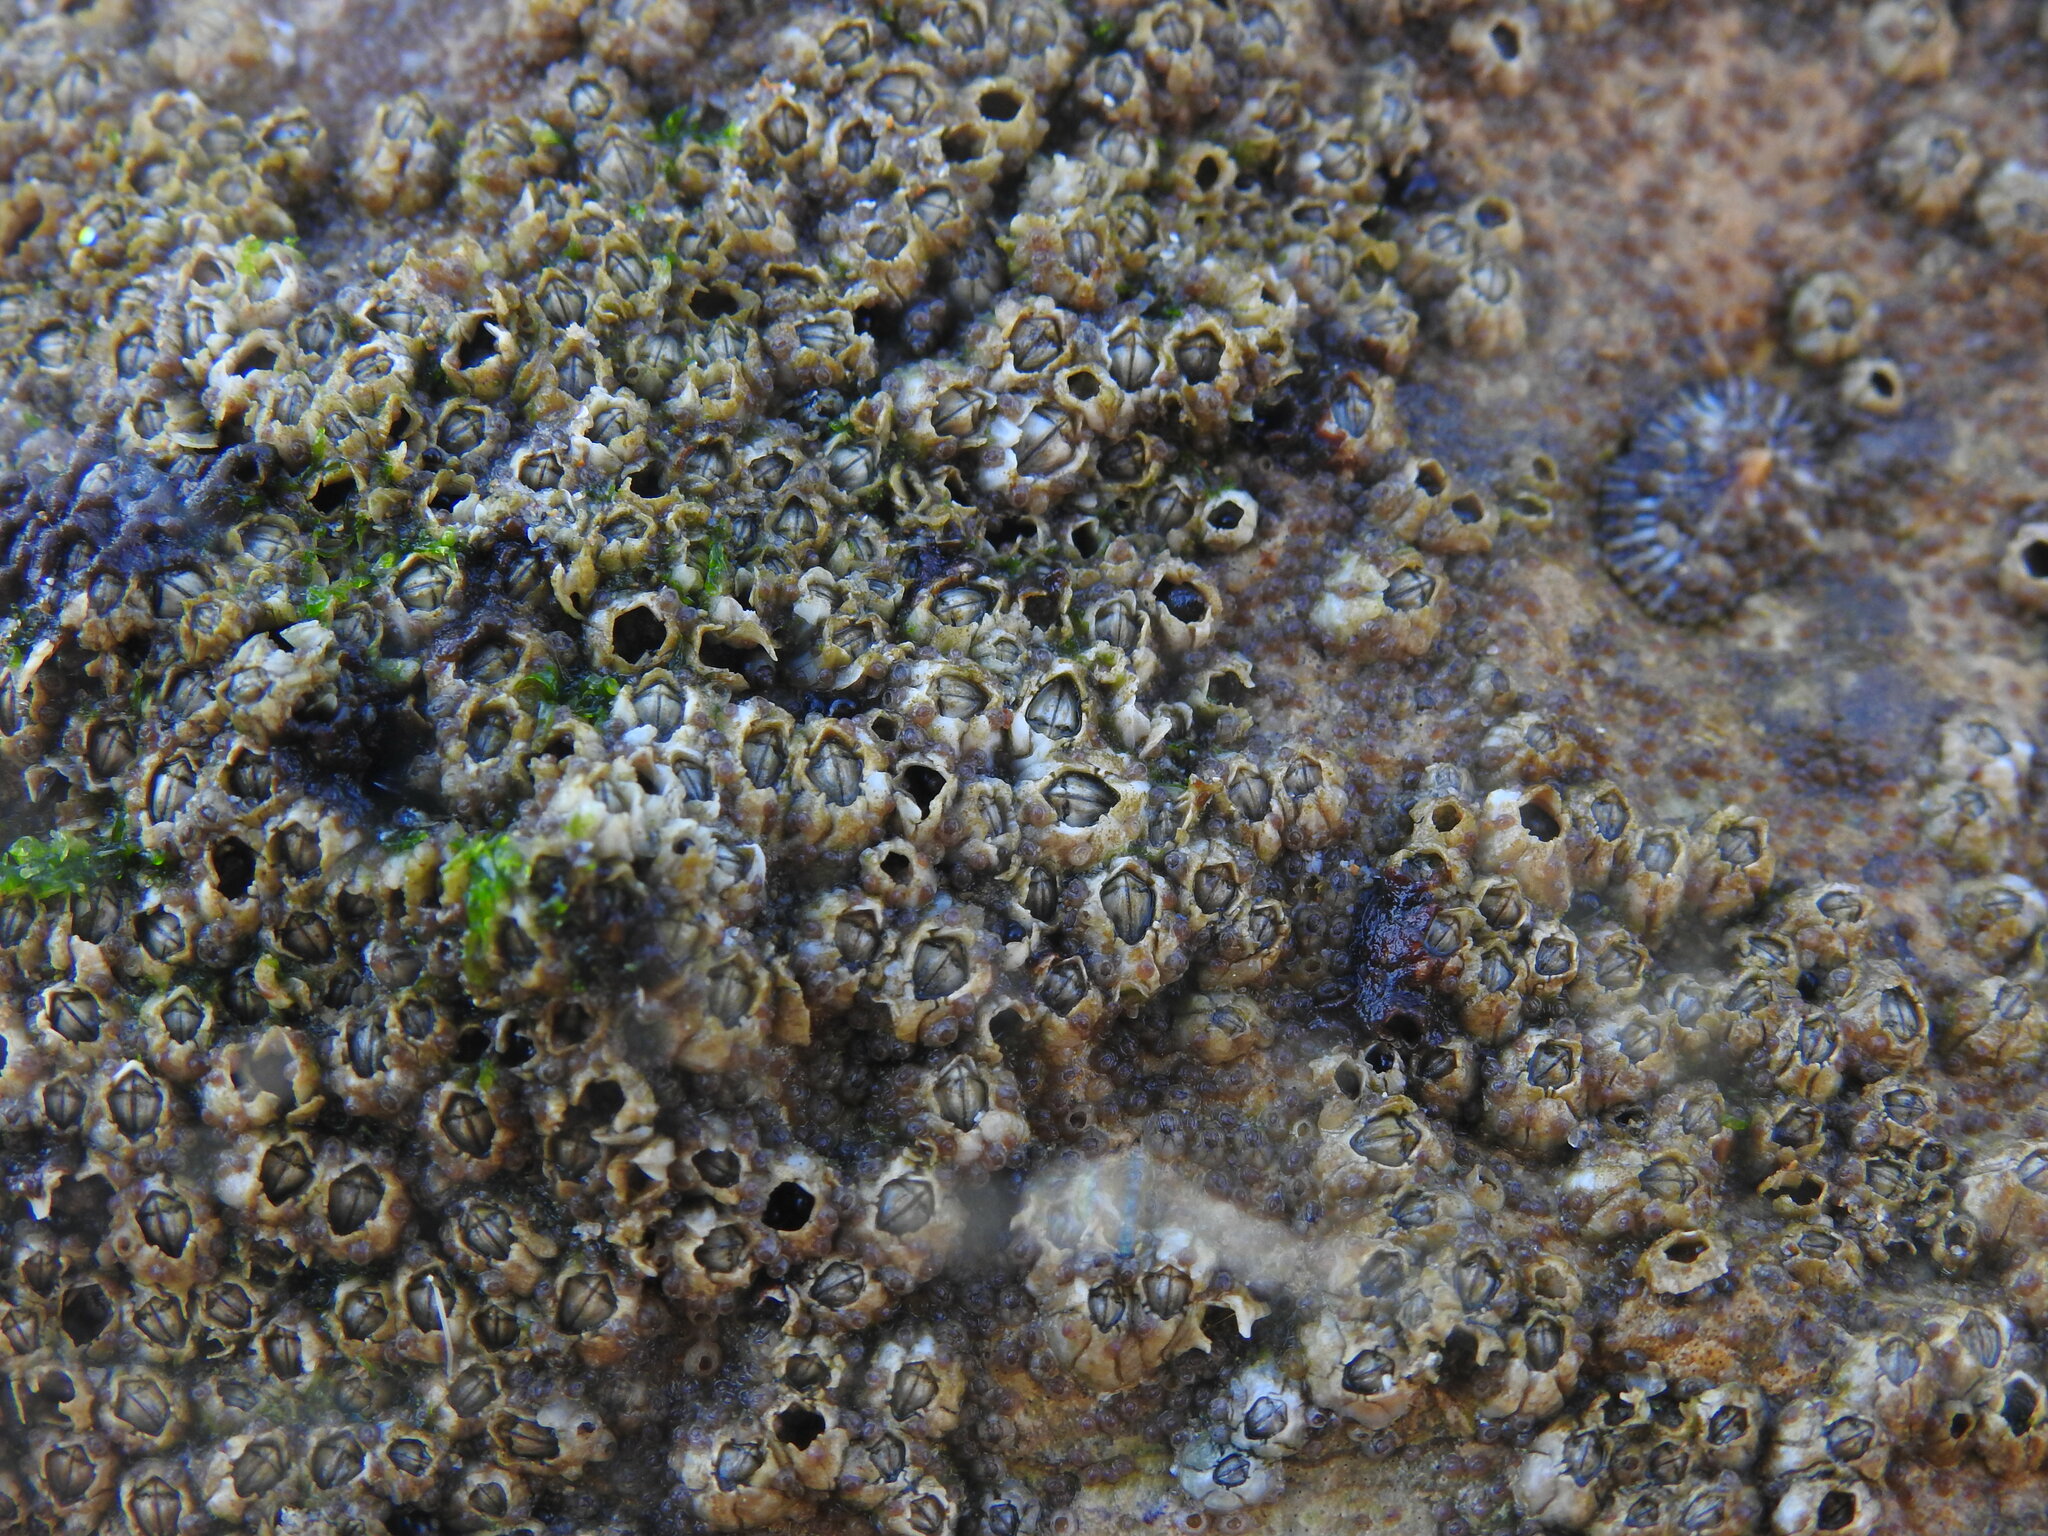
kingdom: Animalia
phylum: Arthropoda
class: Maxillopoda
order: Sessilia
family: Chthamalidae
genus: Chthamalus
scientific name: Chthamalus montagui
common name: Montagu's stellate barnacle
